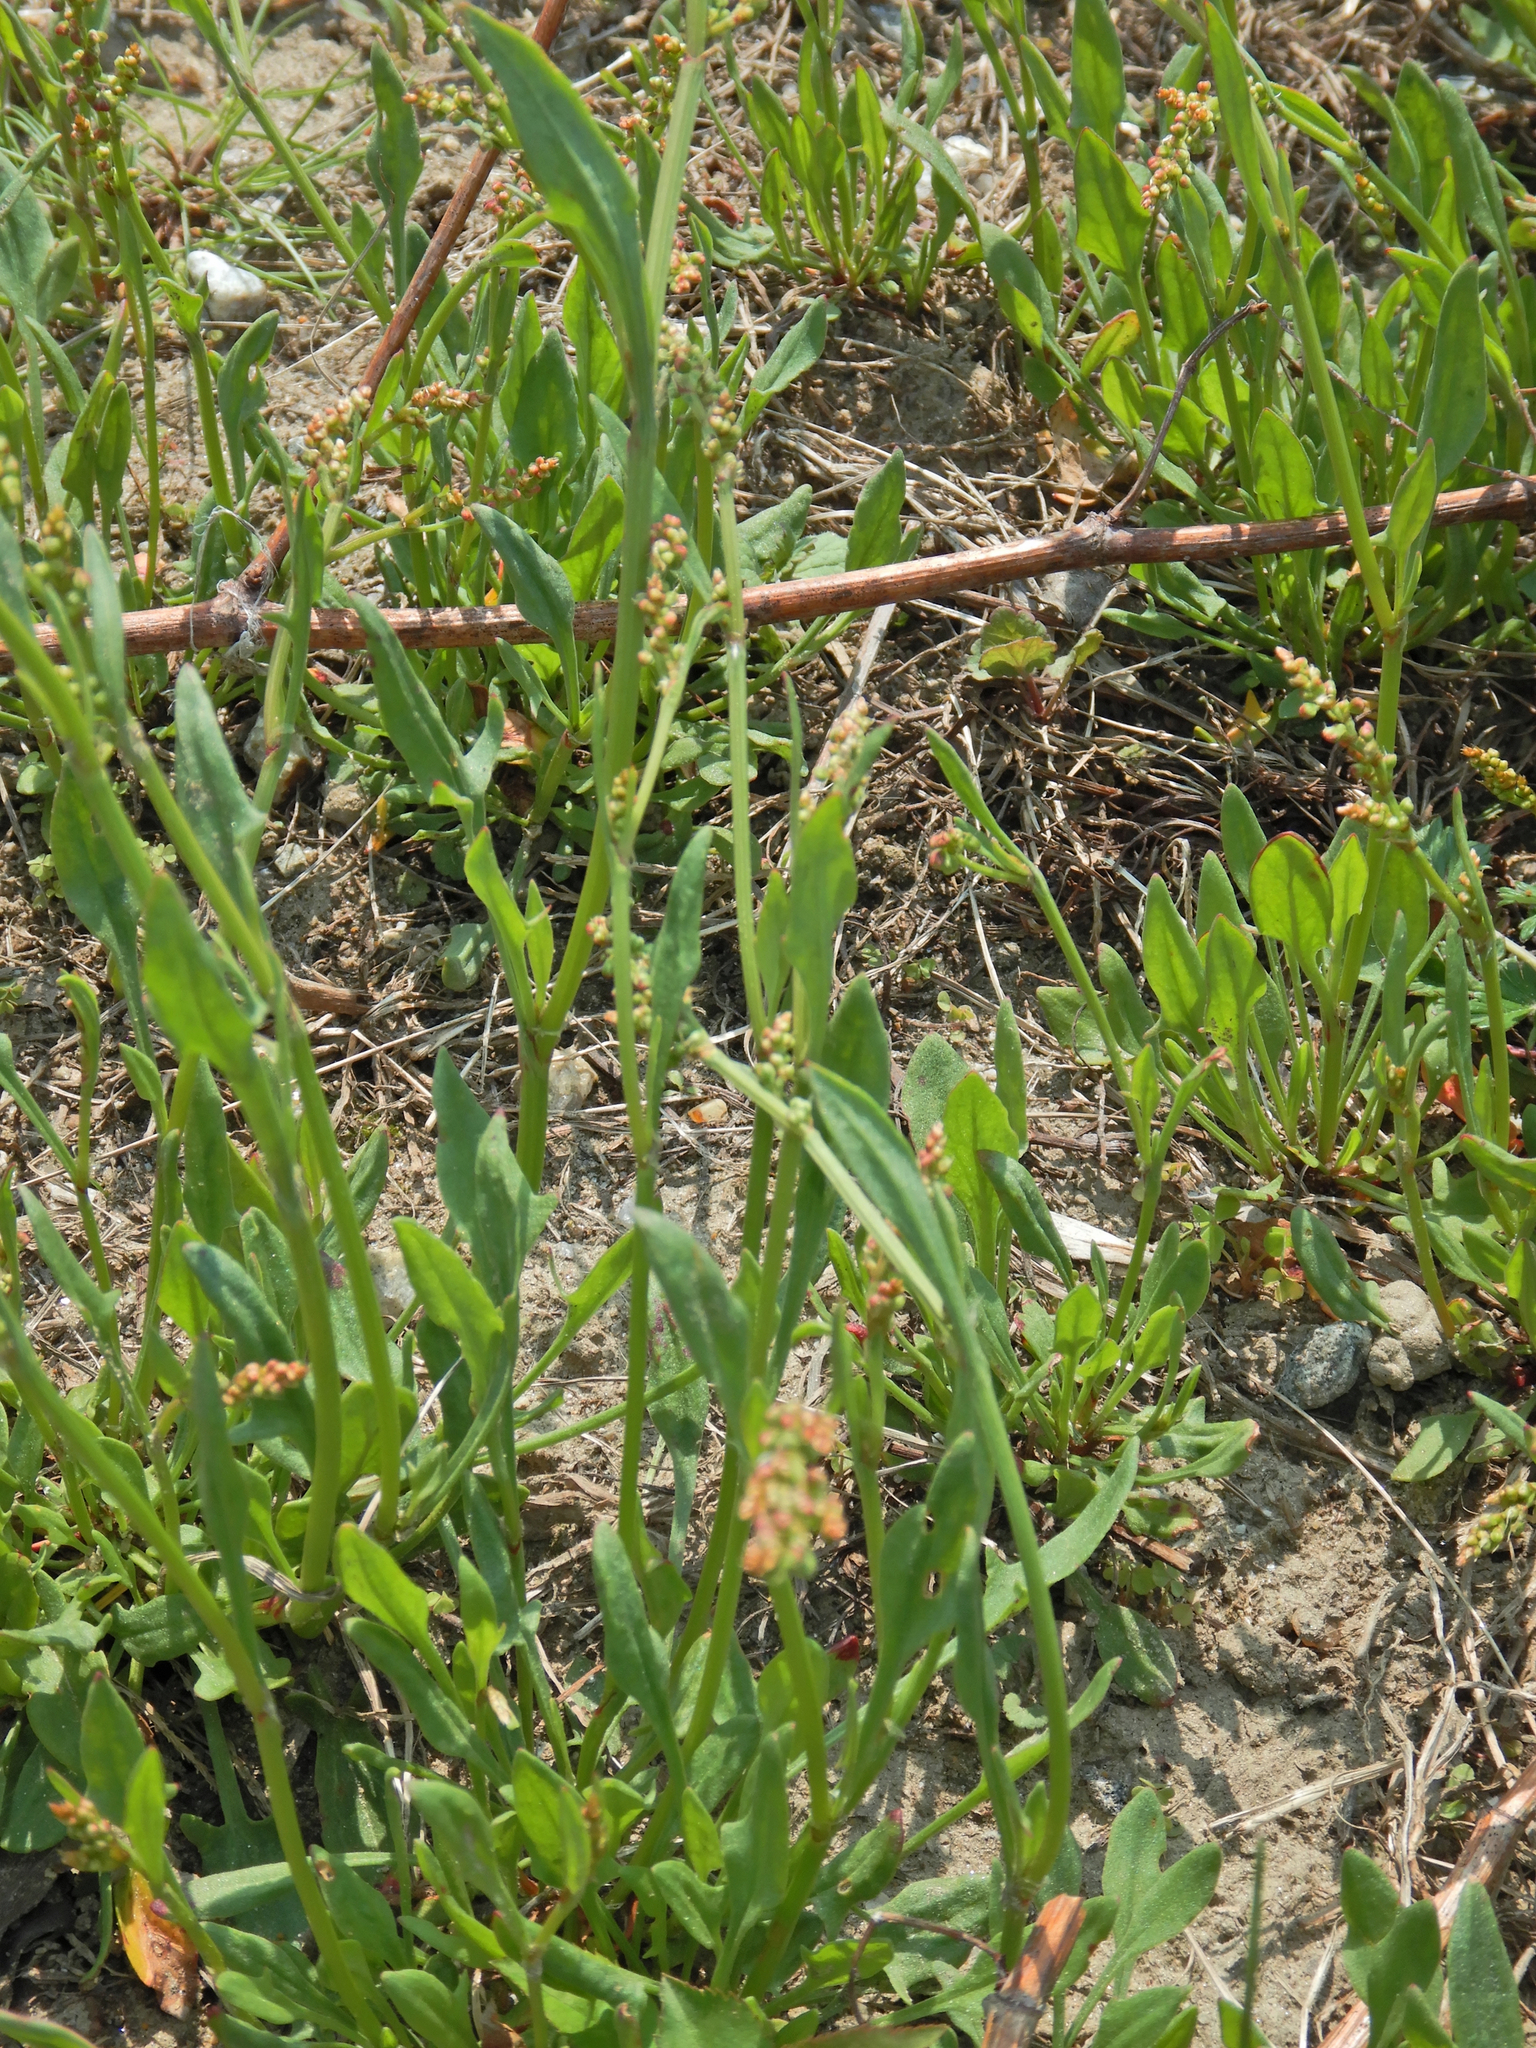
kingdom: Plantae
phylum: Tracheophyta
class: Magnoliopsida
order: Caryophyllales
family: Polygonaceae
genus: Rumex
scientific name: Rumex acetosella
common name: Common sheep sorrel
